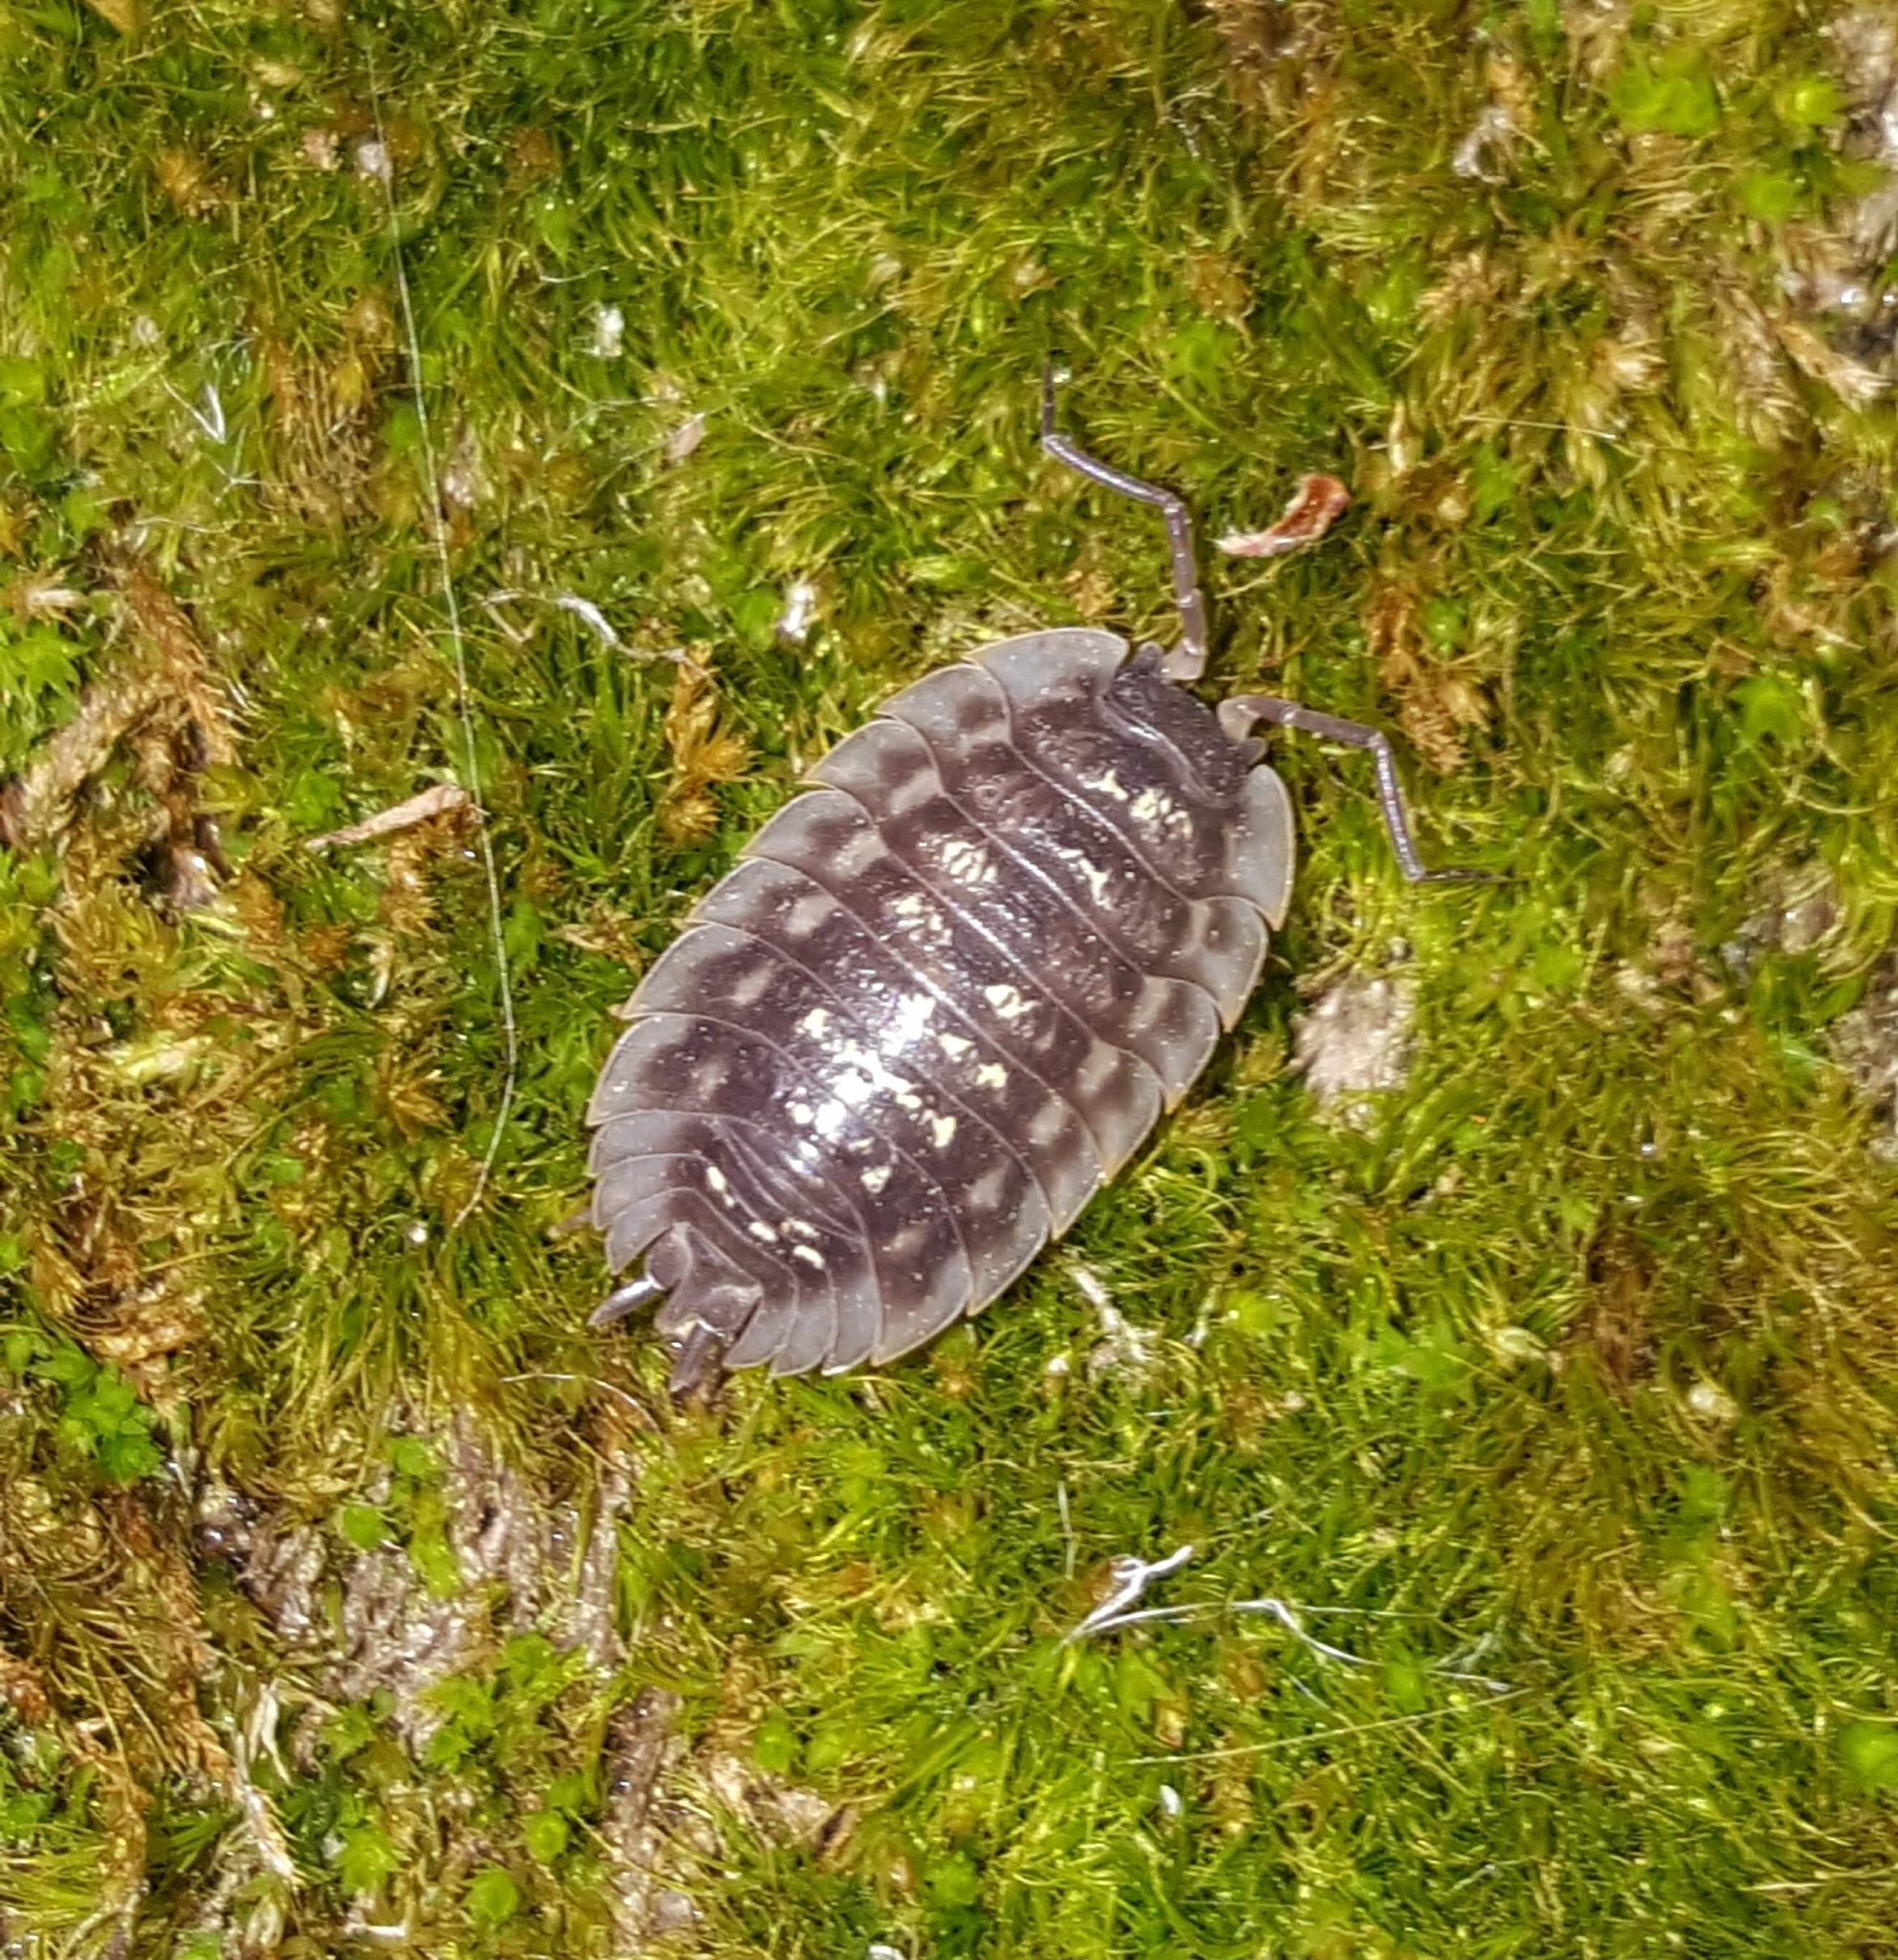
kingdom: Animalia
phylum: Arthropoda
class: Malacostraca
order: Isopoda
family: Oniscidae
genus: Oniscus
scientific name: Oniscus asellus
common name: Common shiny woodlouse
